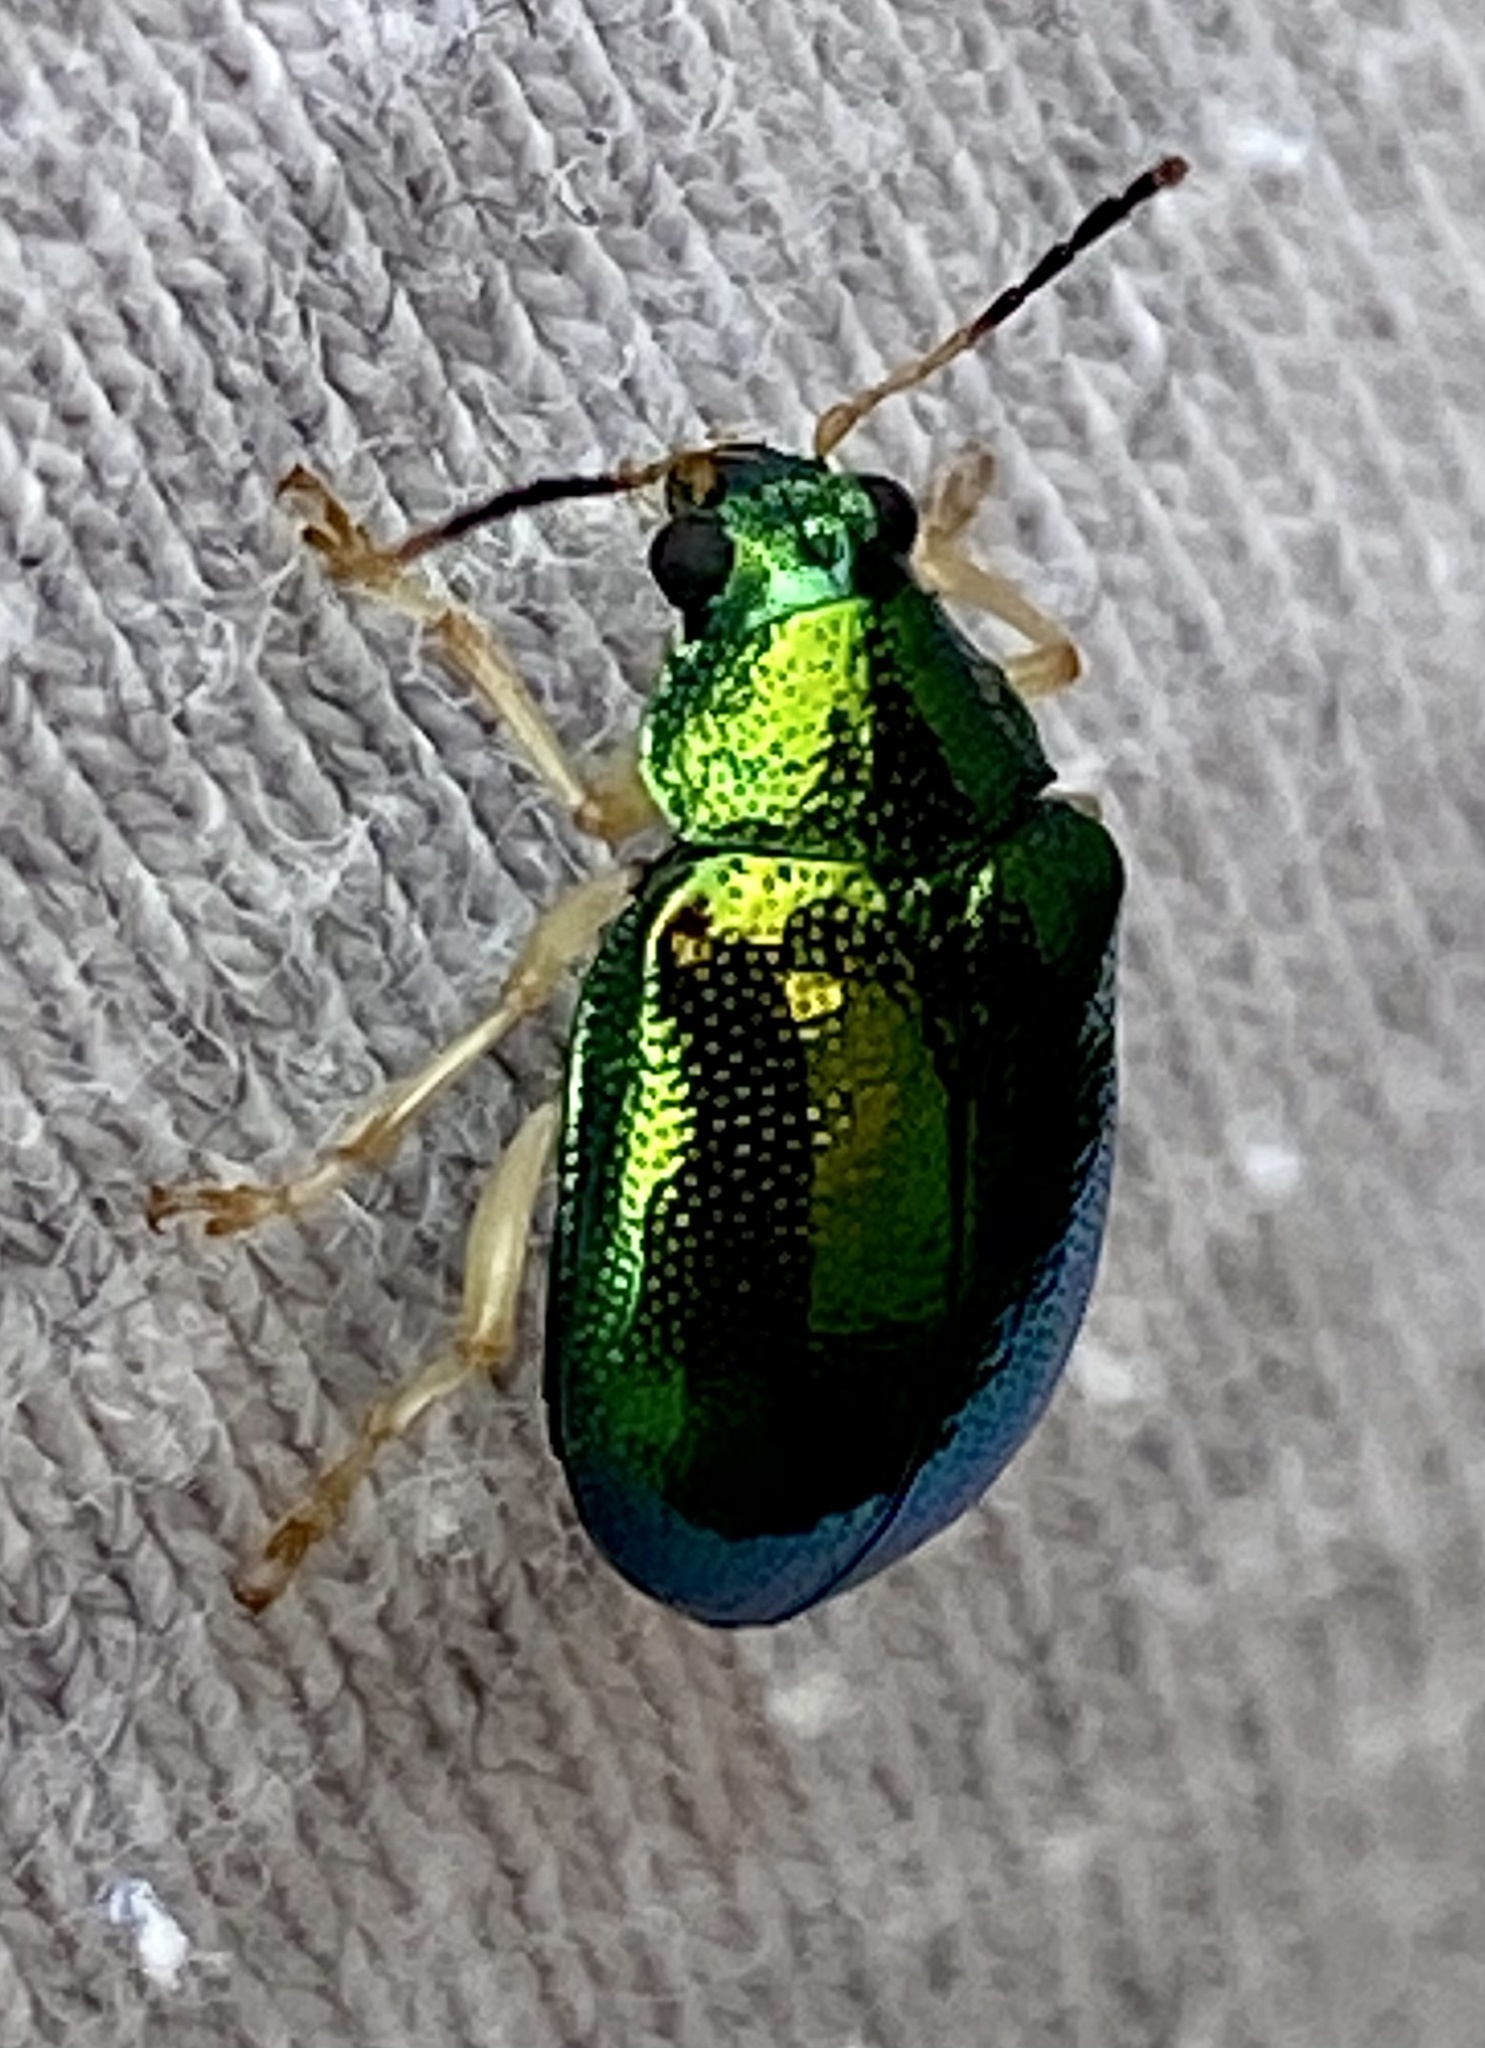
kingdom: Animalia
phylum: Arthropoda
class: Insecta
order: Coleoptera
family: Chrysomelidae
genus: Colaspis
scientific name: Colaspis
